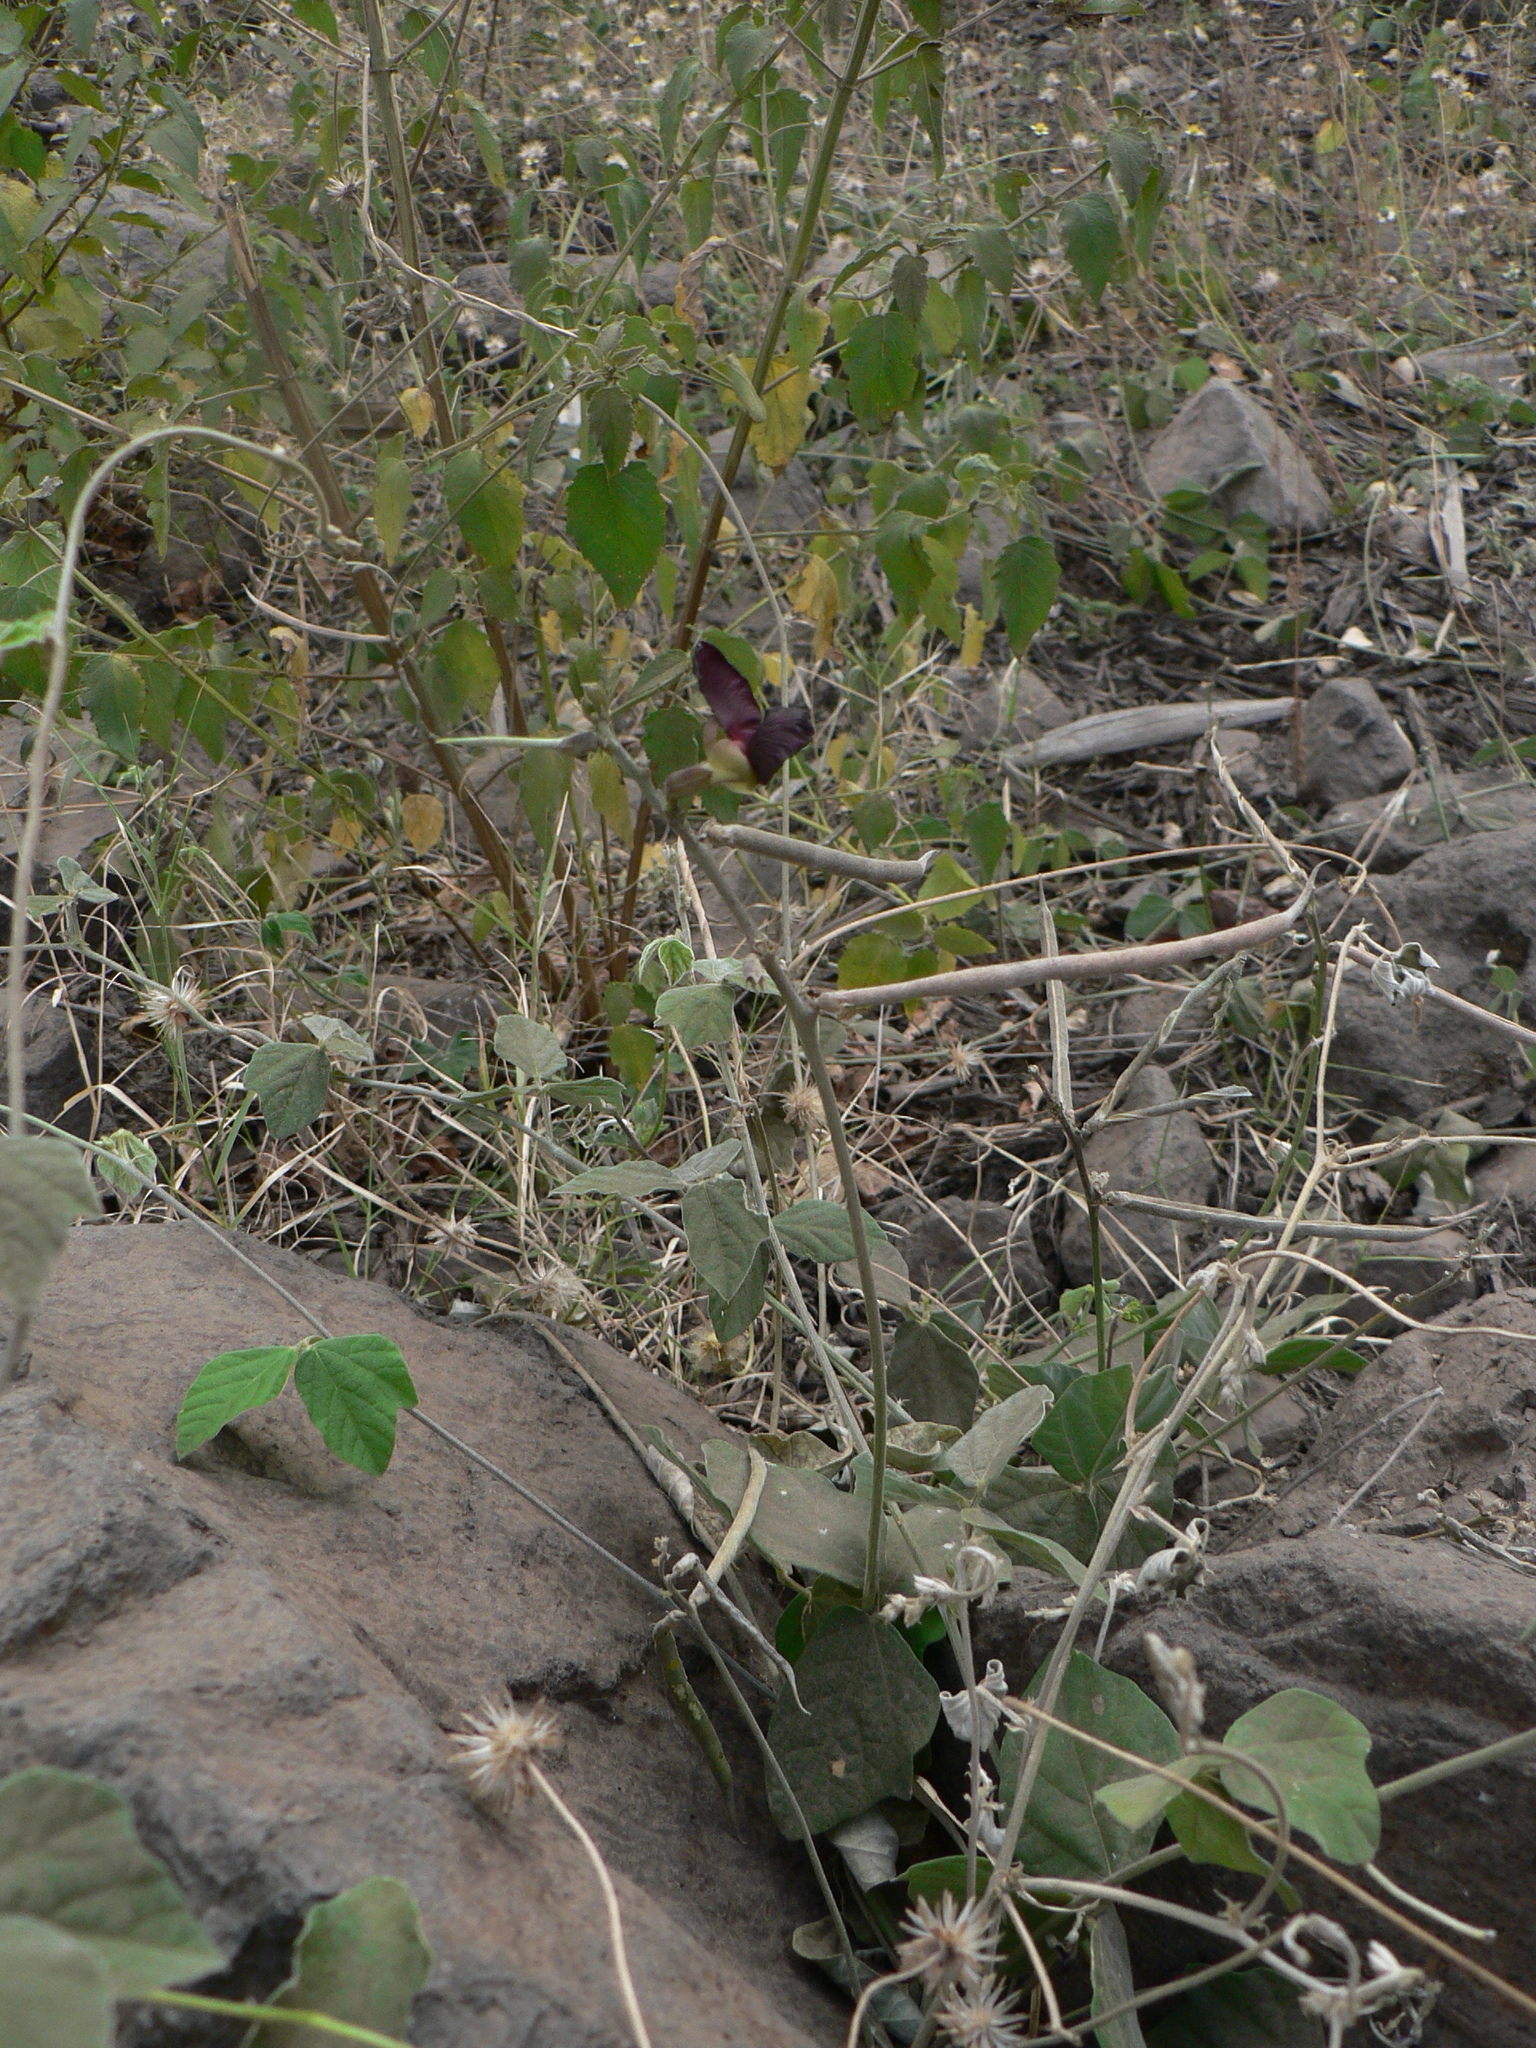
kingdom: Plantae
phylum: Tracheophyta
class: Magnoliopsida
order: Fabales
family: Fabaceae
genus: Macroptilium
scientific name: Macroptilium atropurpureum
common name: Purple bushbean
